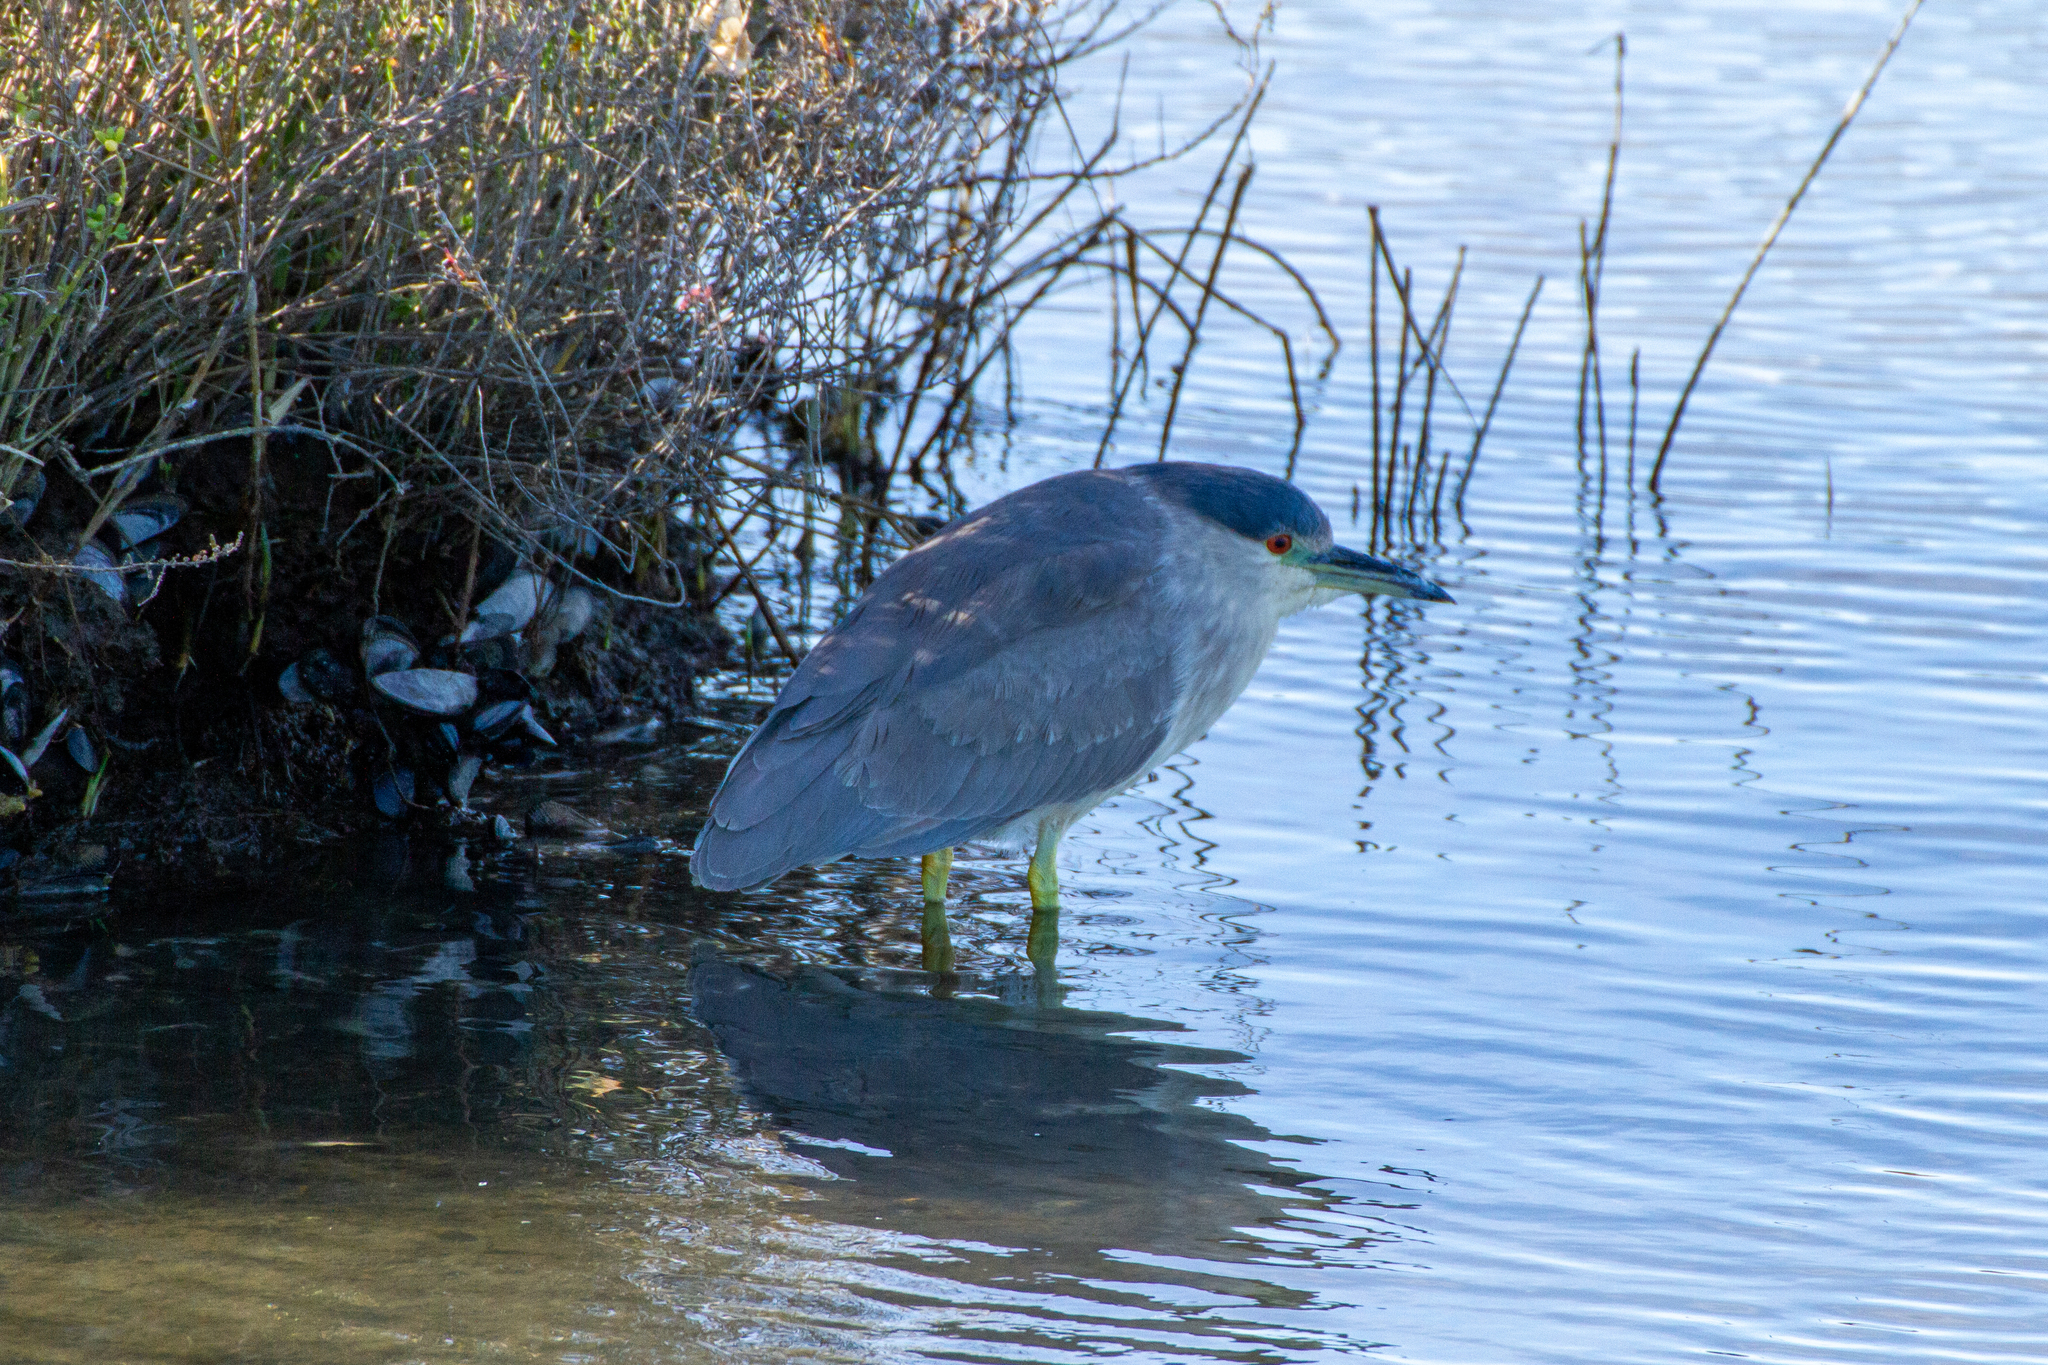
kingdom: Animalia
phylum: Chordata
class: Aves
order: Pelecaniformes
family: Ardeidae
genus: Nycticorax
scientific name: Nycticorax nycticorax
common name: Black-crowned night heron
